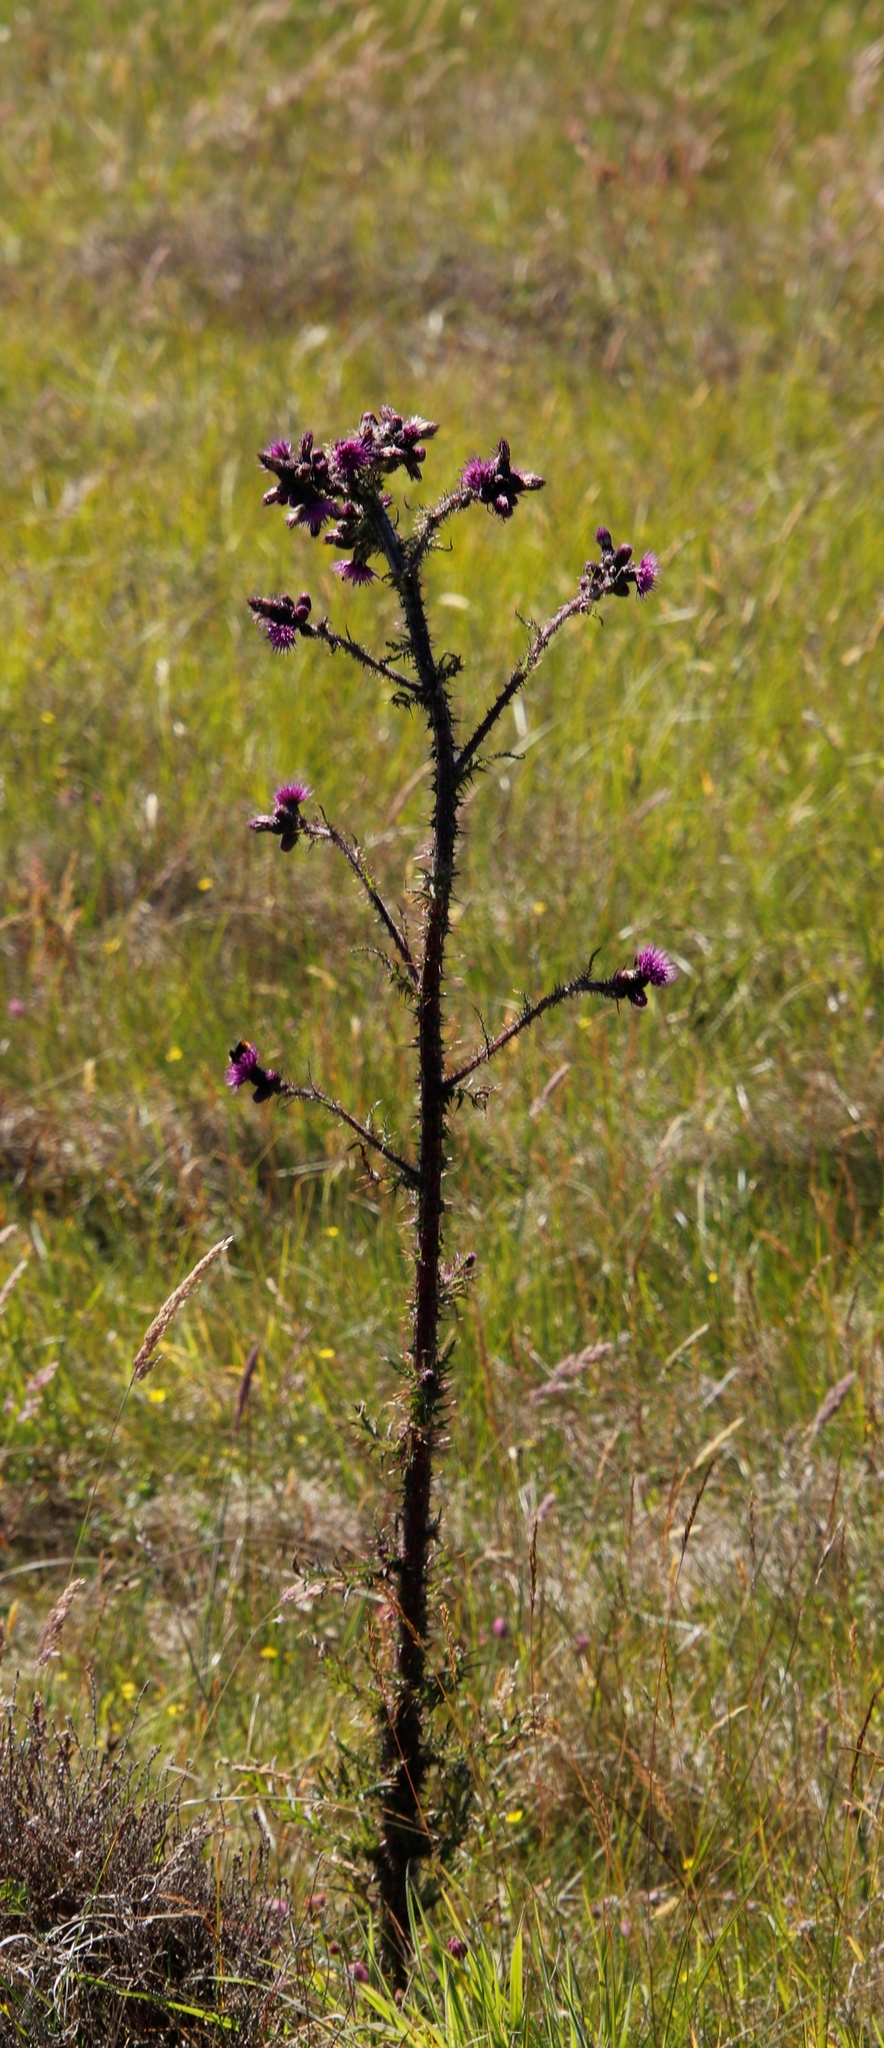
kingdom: Plantae
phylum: Tracheophyta
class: Magnoliopsida
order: Asterales
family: Asteraceae
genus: Cirsium
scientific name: Cirsium palustre
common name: Marsh thistle
